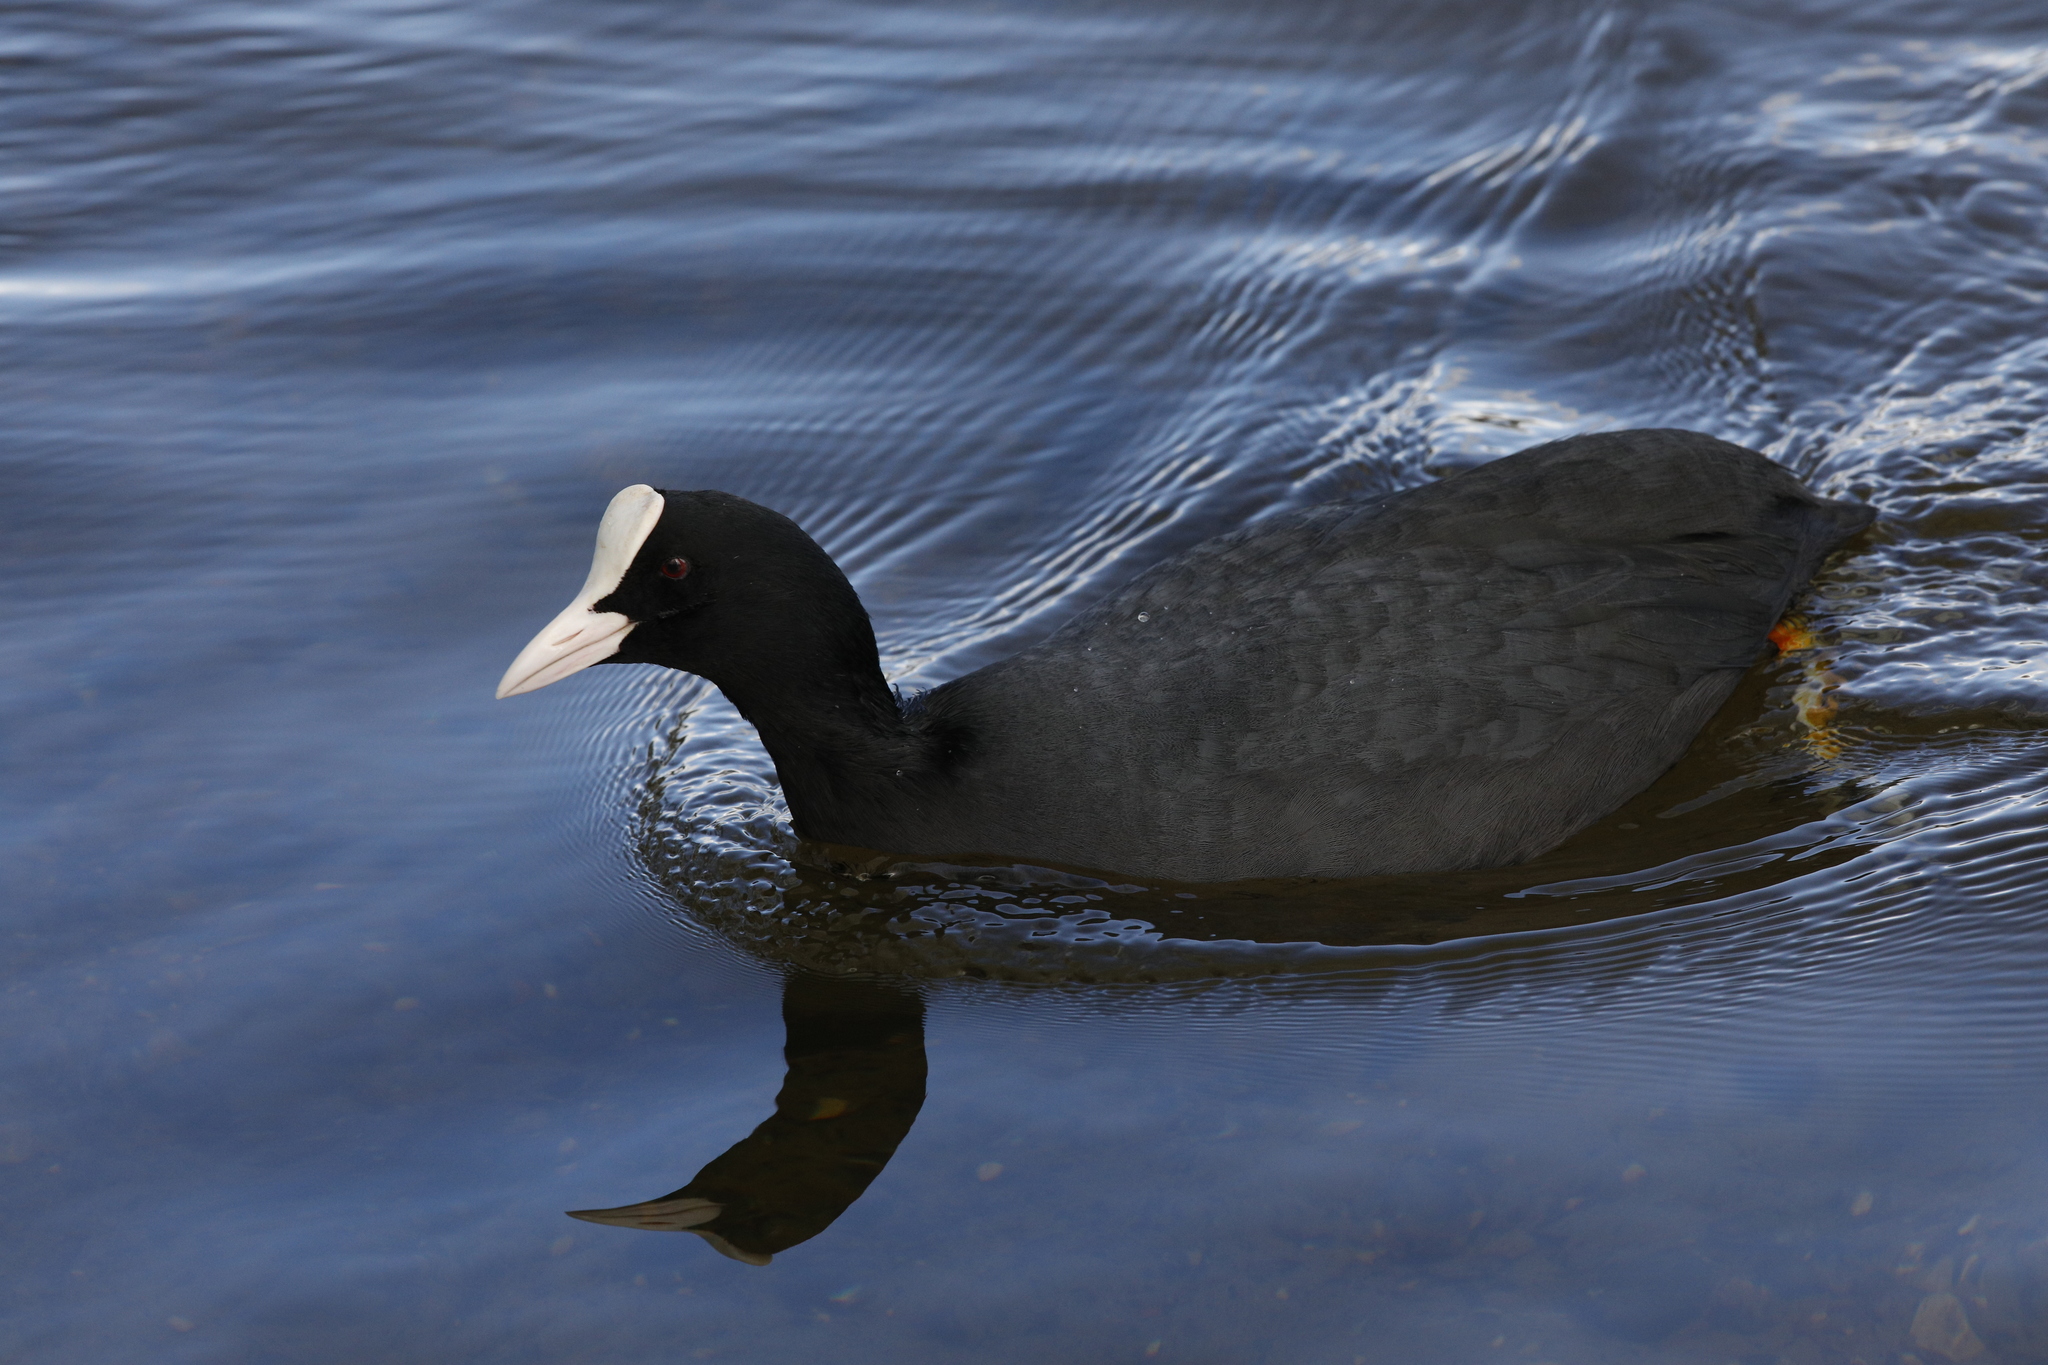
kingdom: Animalia
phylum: Chordata
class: Aves
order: Gruiformes
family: Rallidae
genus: Fulica
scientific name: Fulica atra
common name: Eurasian coot
